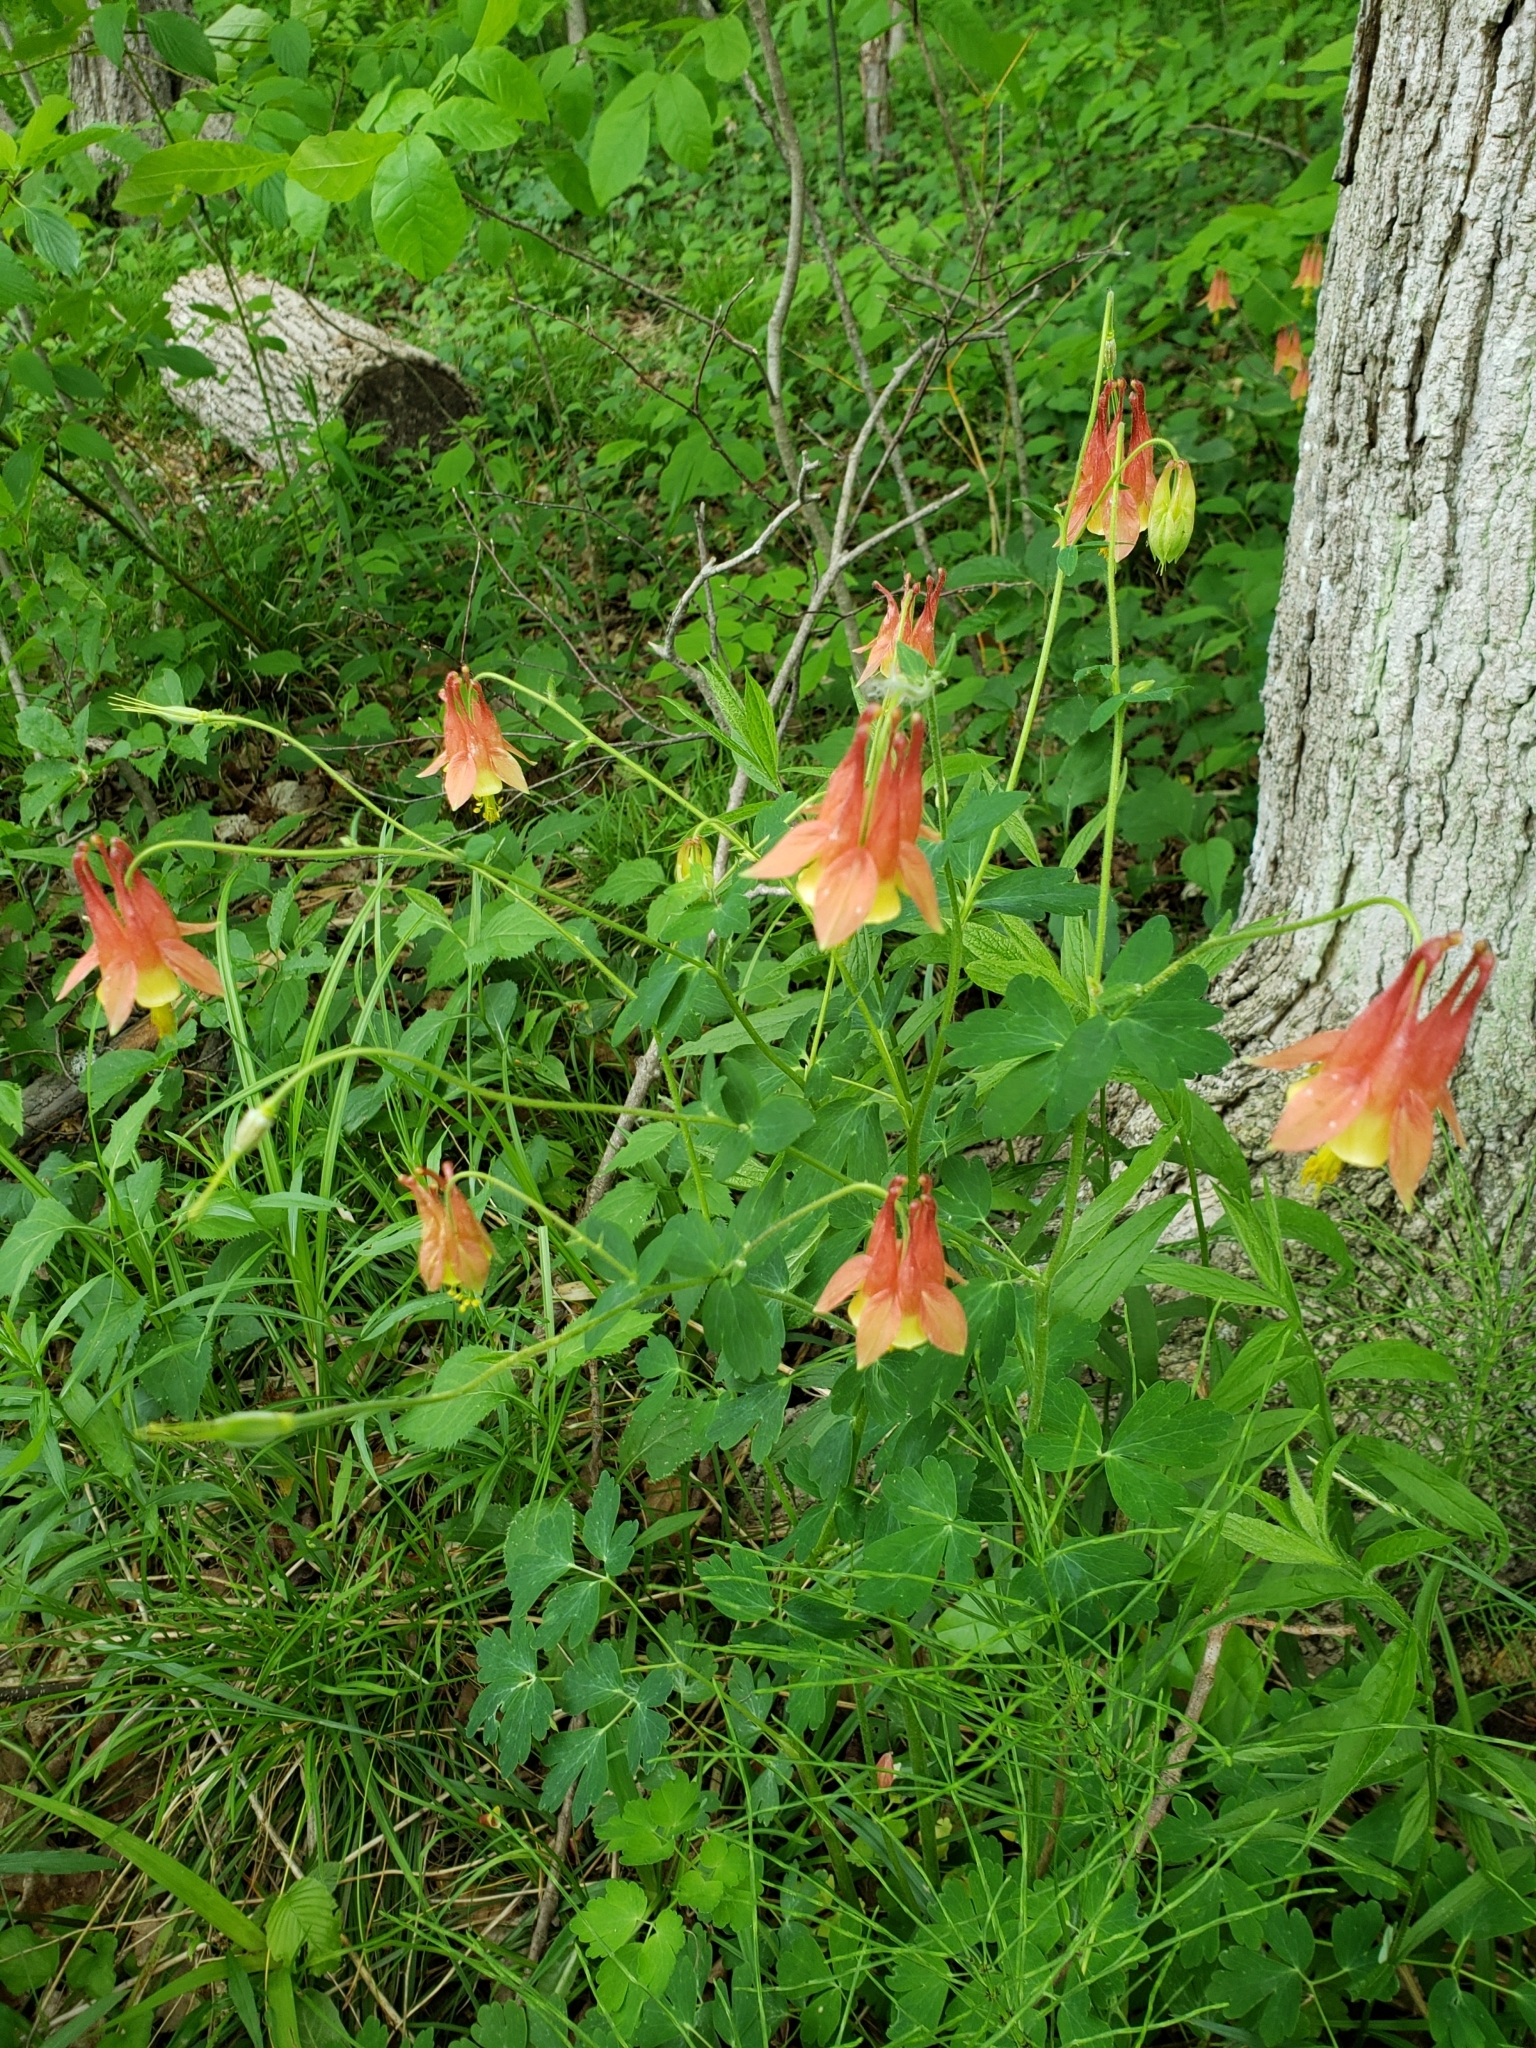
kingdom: Plantae
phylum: Tracheophyta
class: Magnoliopsida
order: Ranunculales
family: Ranunculaceae
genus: Aquilegia
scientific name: Aquilegia canadensis
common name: American columbine
